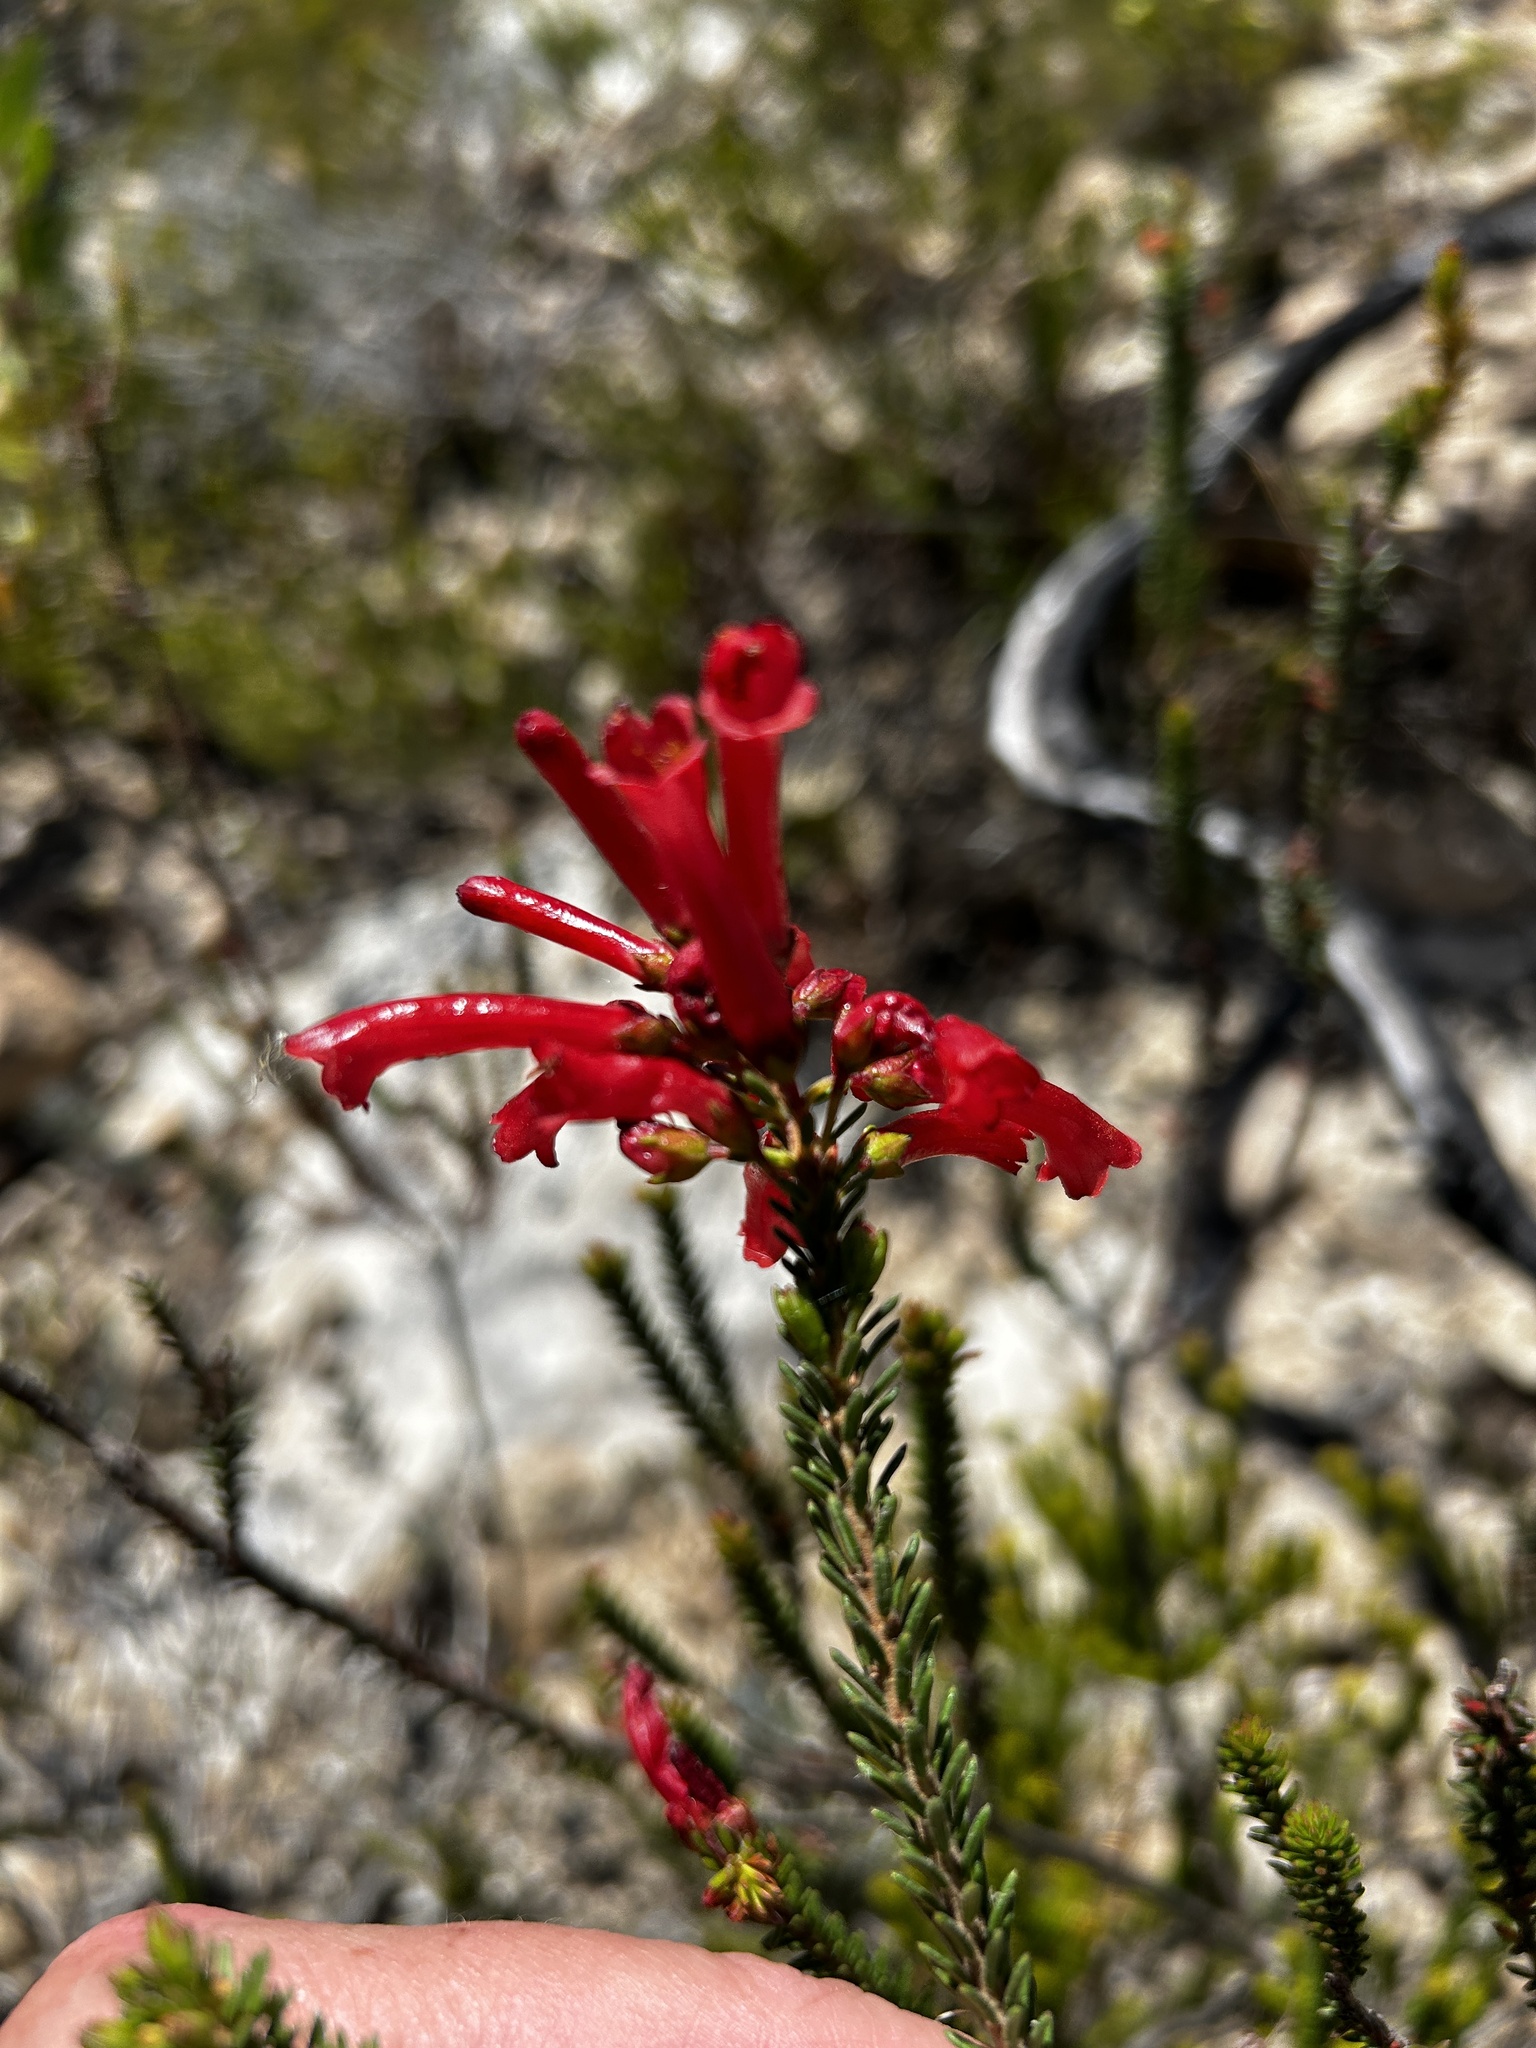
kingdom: Plantae
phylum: Tracheophyta
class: Magnoliopsida
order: Ericales
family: Ericaceae
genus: Erica
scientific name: Erica regia
